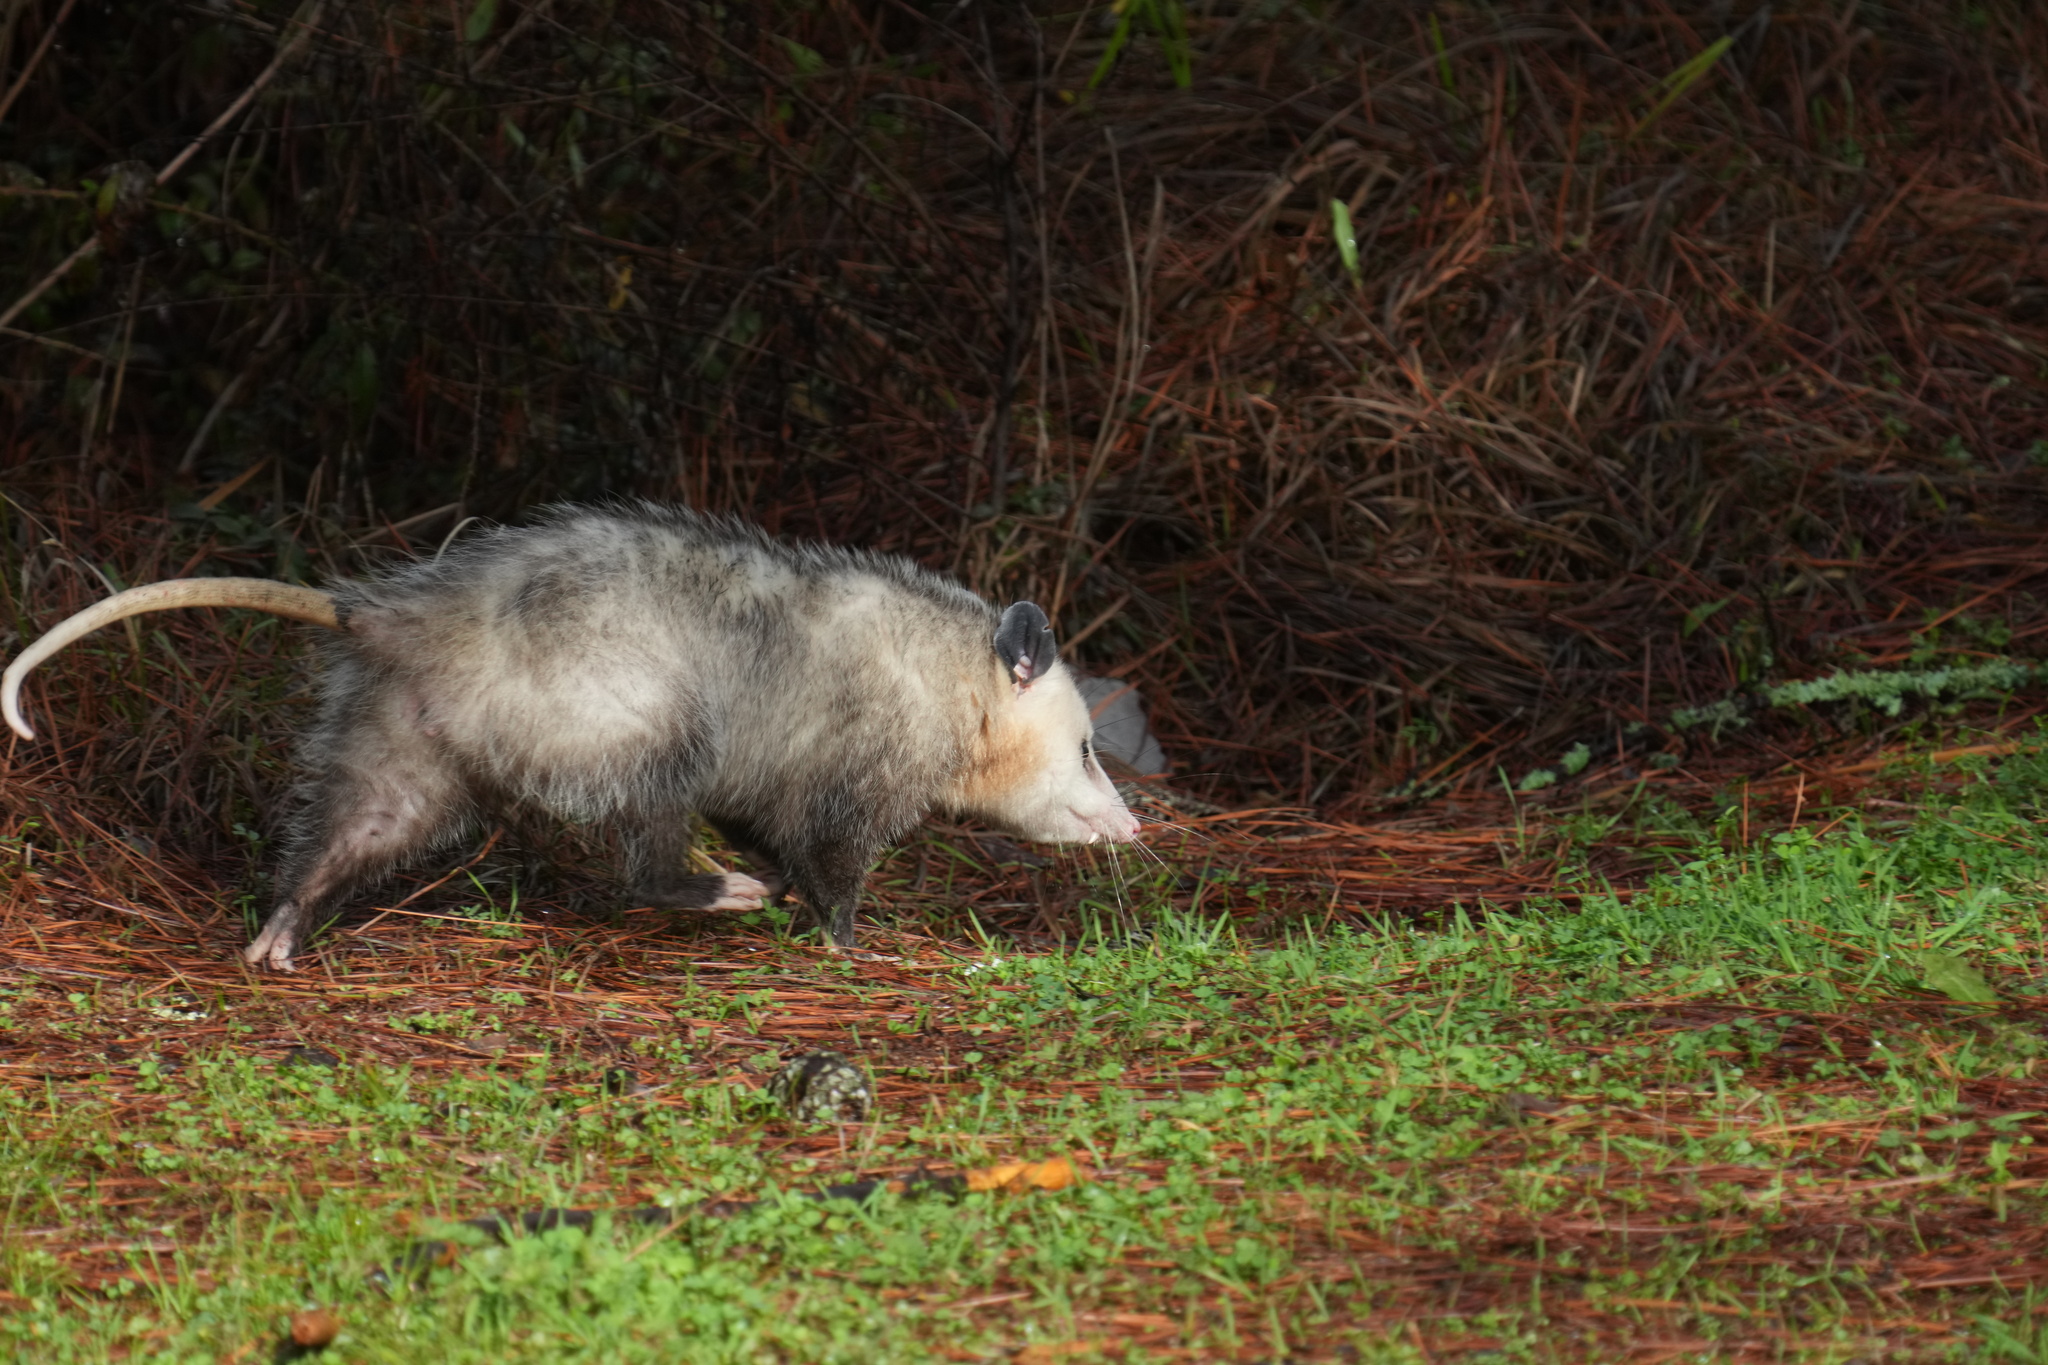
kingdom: Animalia
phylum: Chordata
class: Mammalia
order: Didelphimorphia
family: Didelphidae
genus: Didelphis
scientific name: Didelphis virginiana
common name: Virginia opossum
